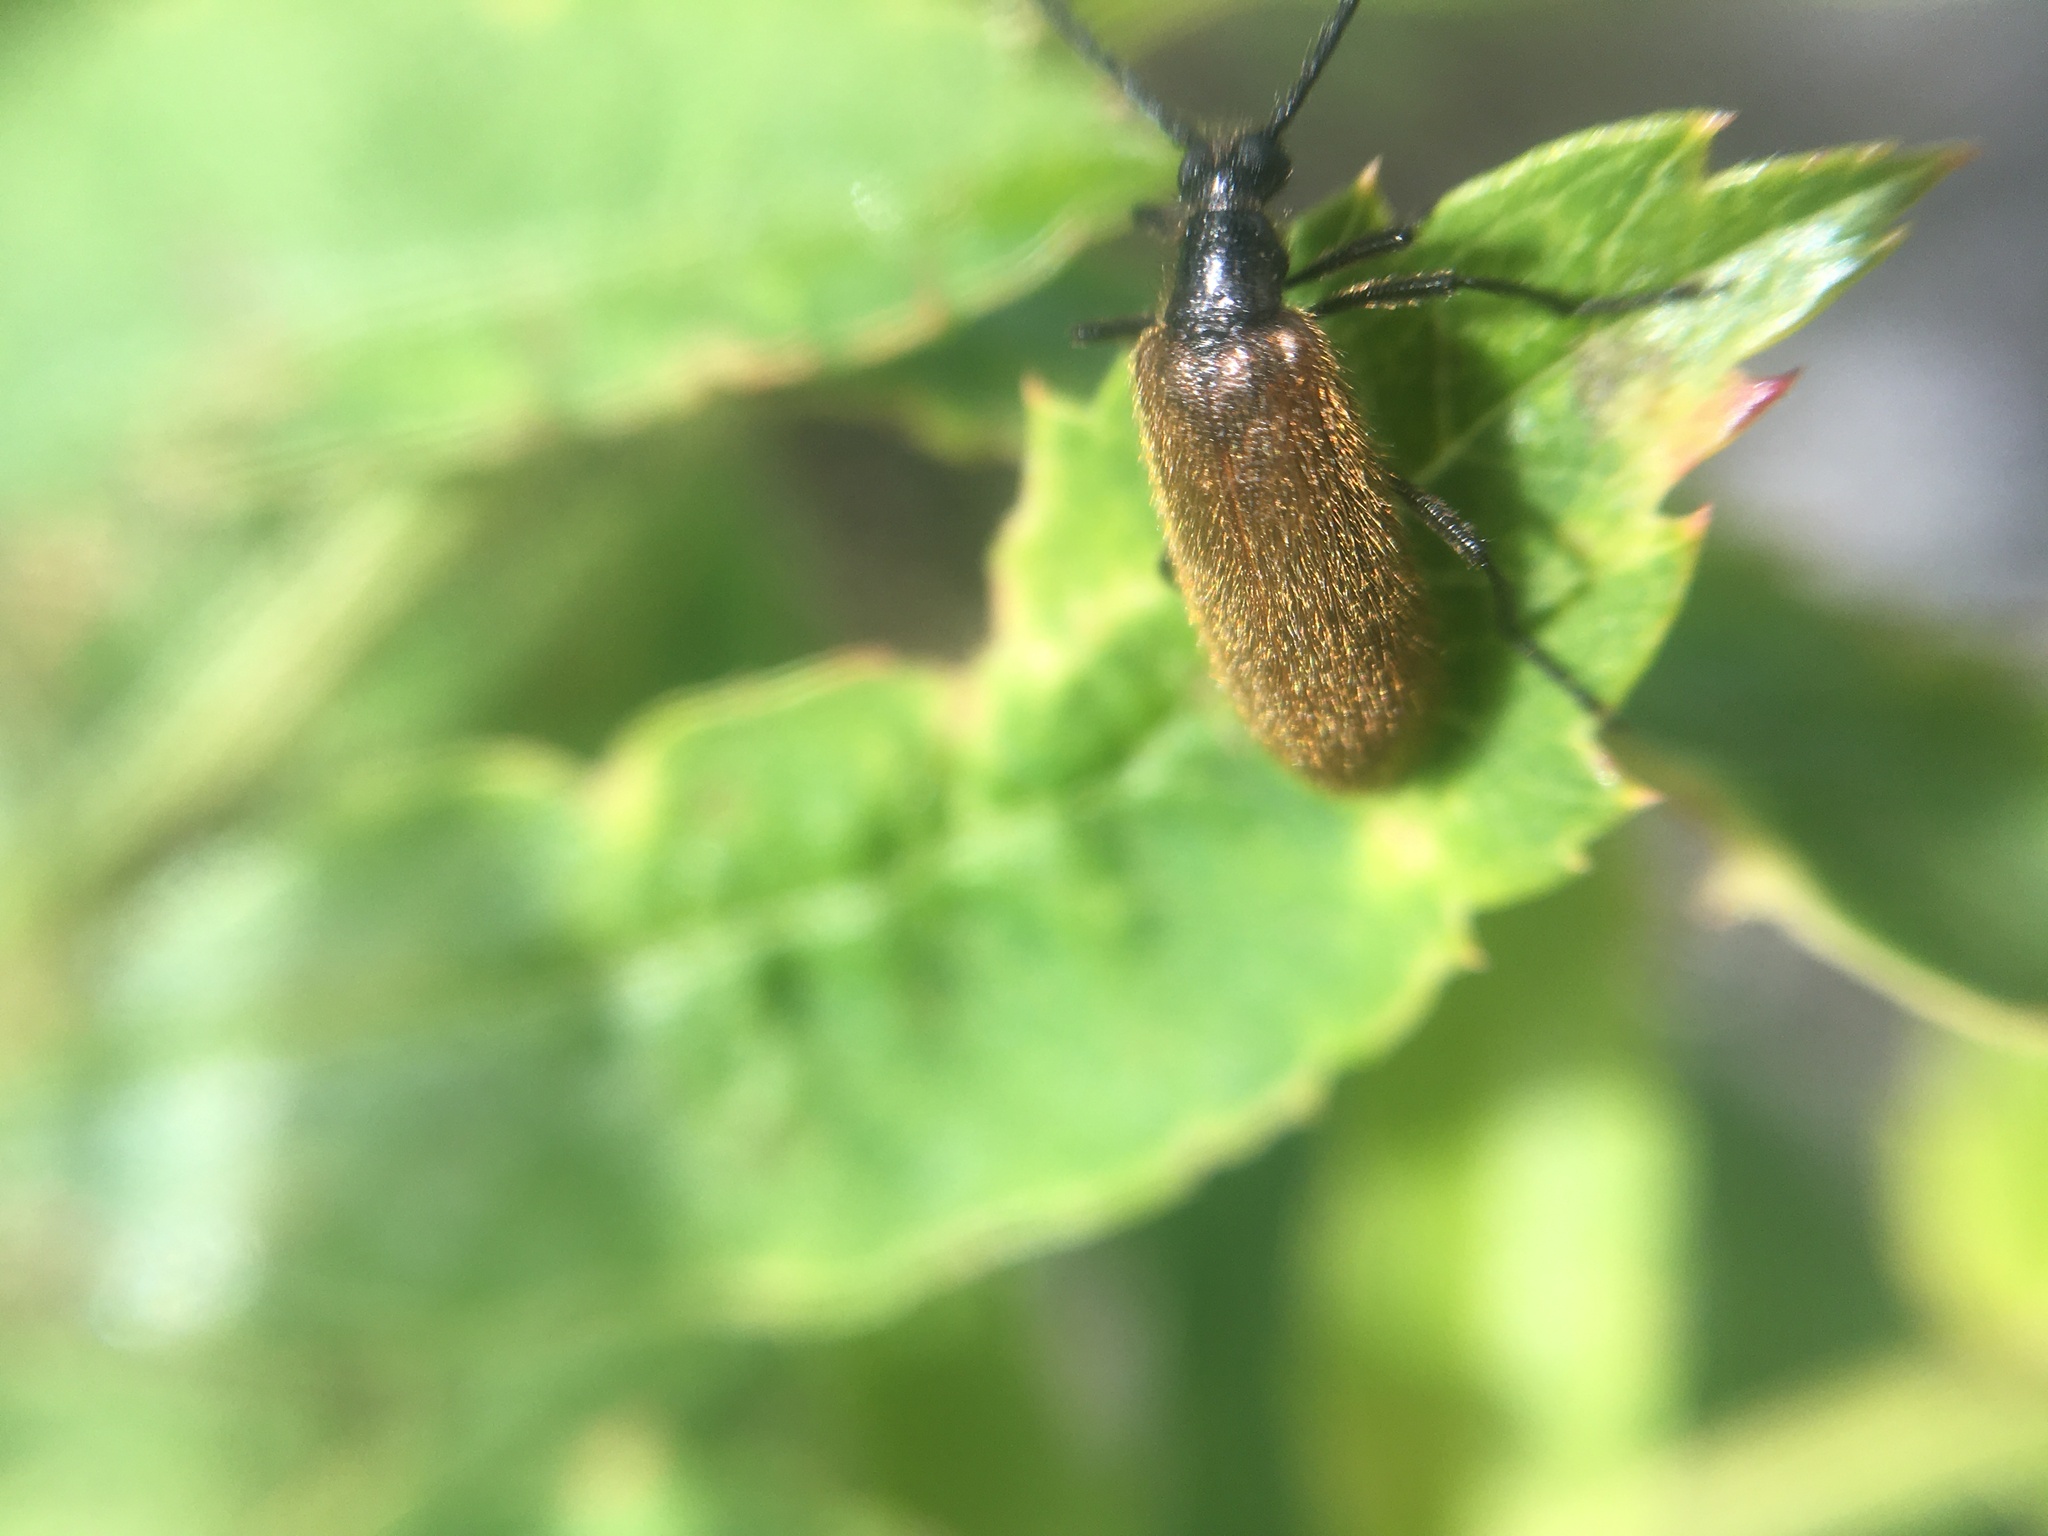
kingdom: Animalia
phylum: Arthropoda
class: Insecta
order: Coleoptera
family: Tenebrionidae
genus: Lagria
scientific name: Lagria hirta
